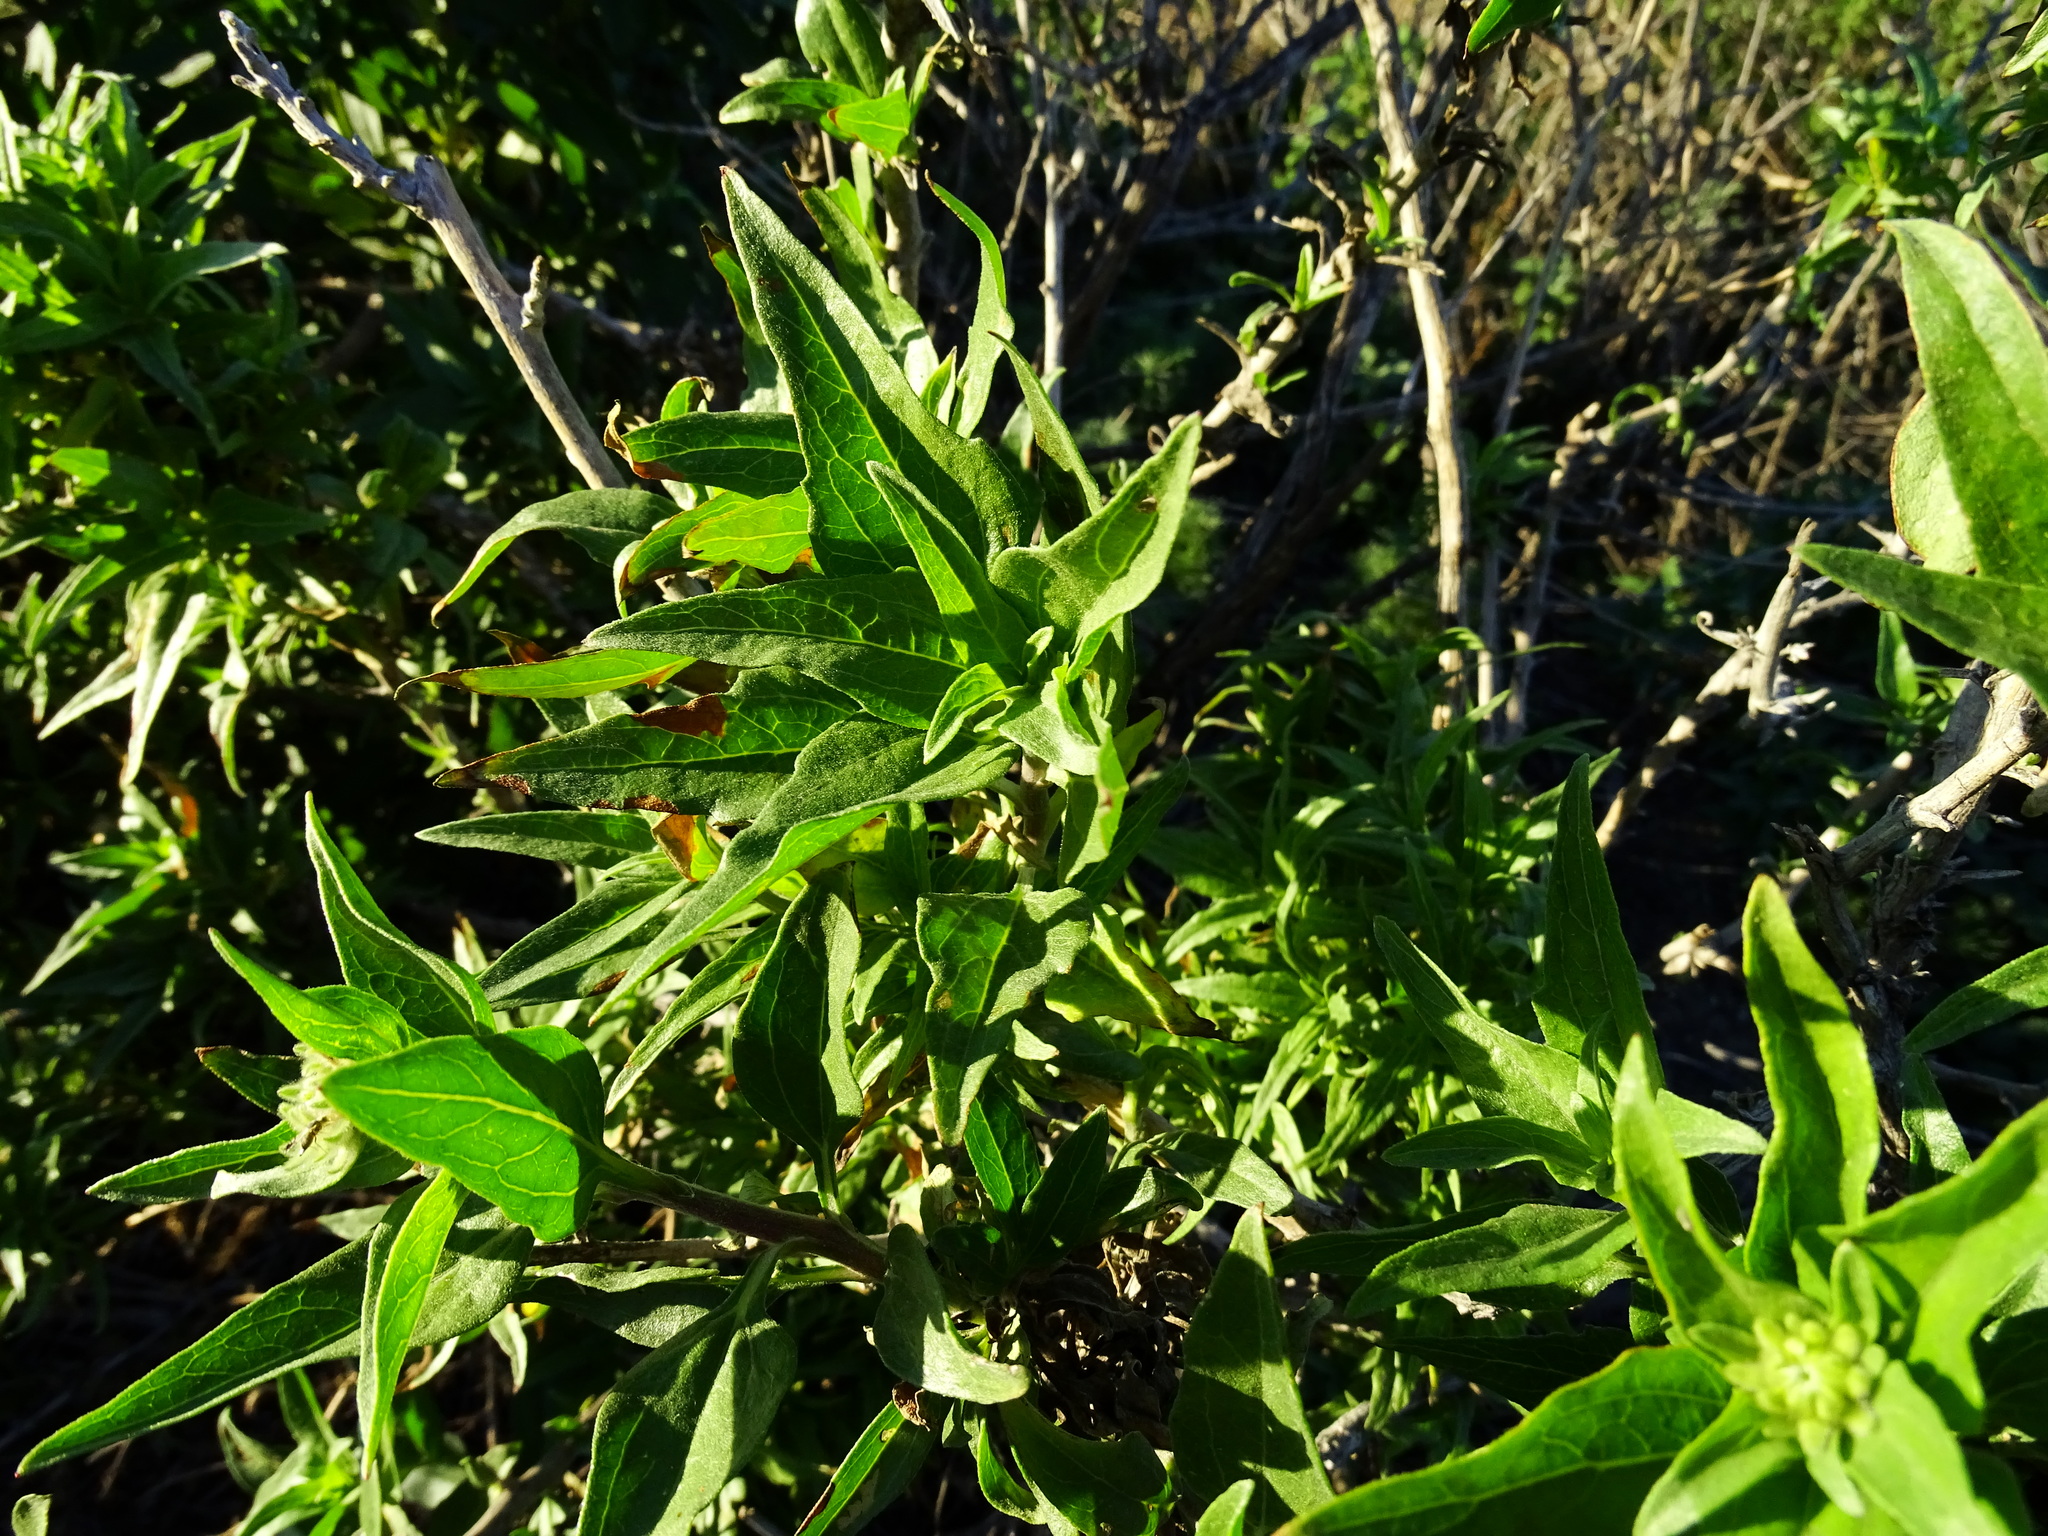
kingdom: Plantae
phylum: Tracheophyta
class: Magnoliopsida
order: Asterales
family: Asteraceae
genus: Encelia
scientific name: Encelia californica
